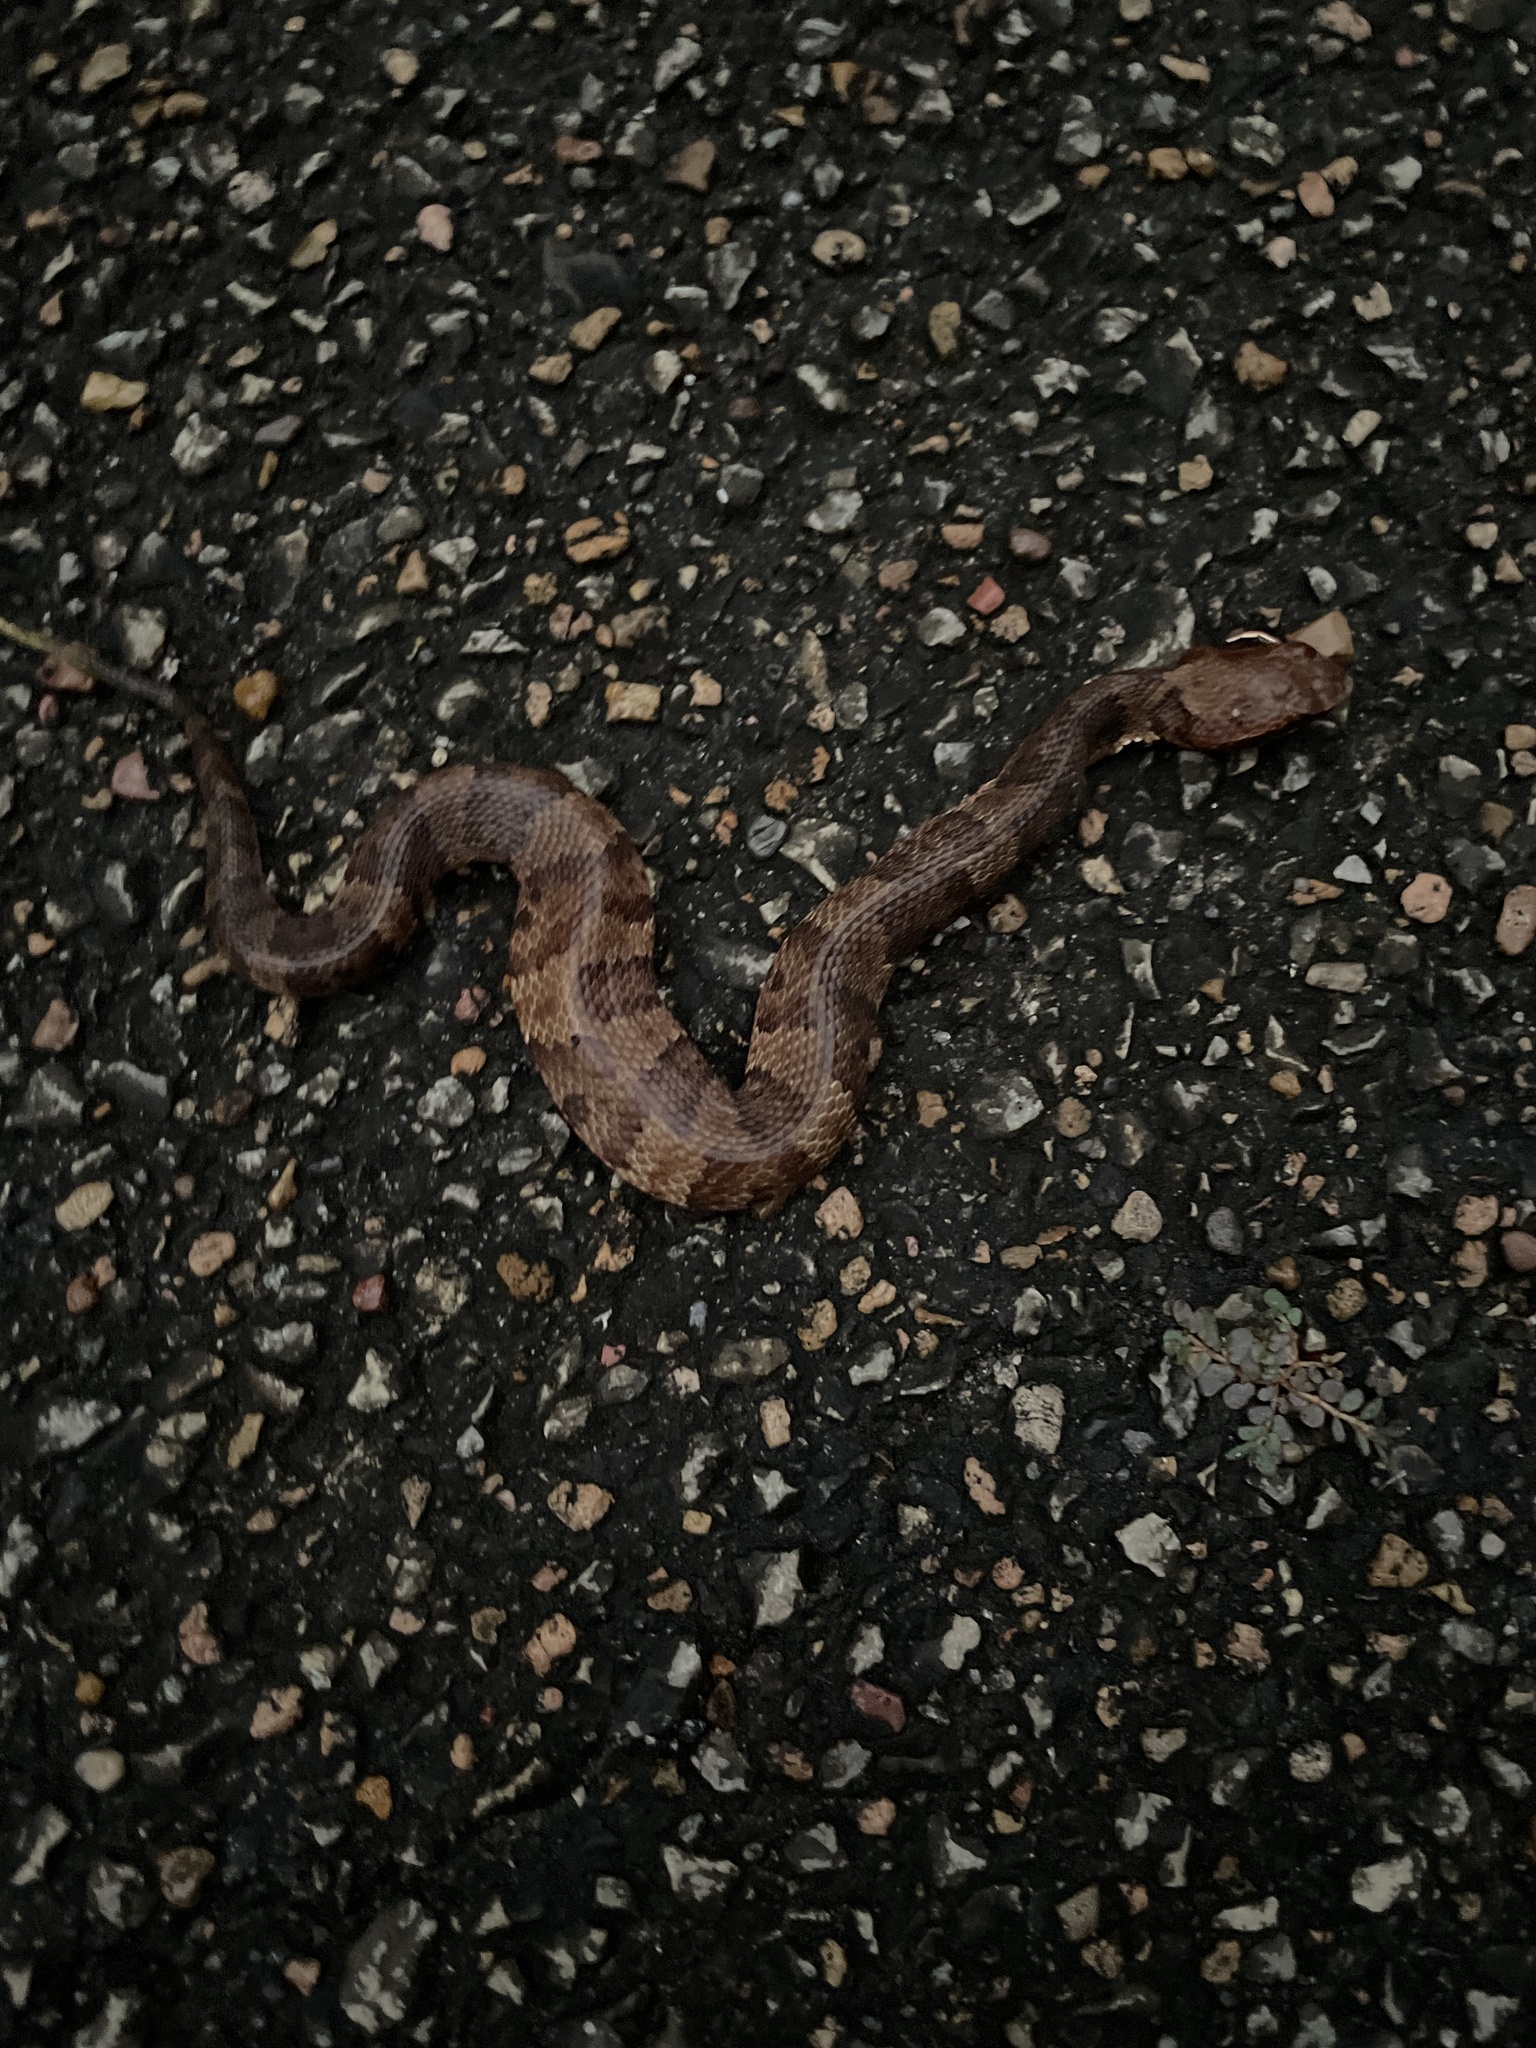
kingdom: Animalia
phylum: Chordata
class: Squamata
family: Viperidae
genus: Agkistrodon
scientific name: Agkistrodon piscivorus
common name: Cottonmouth
